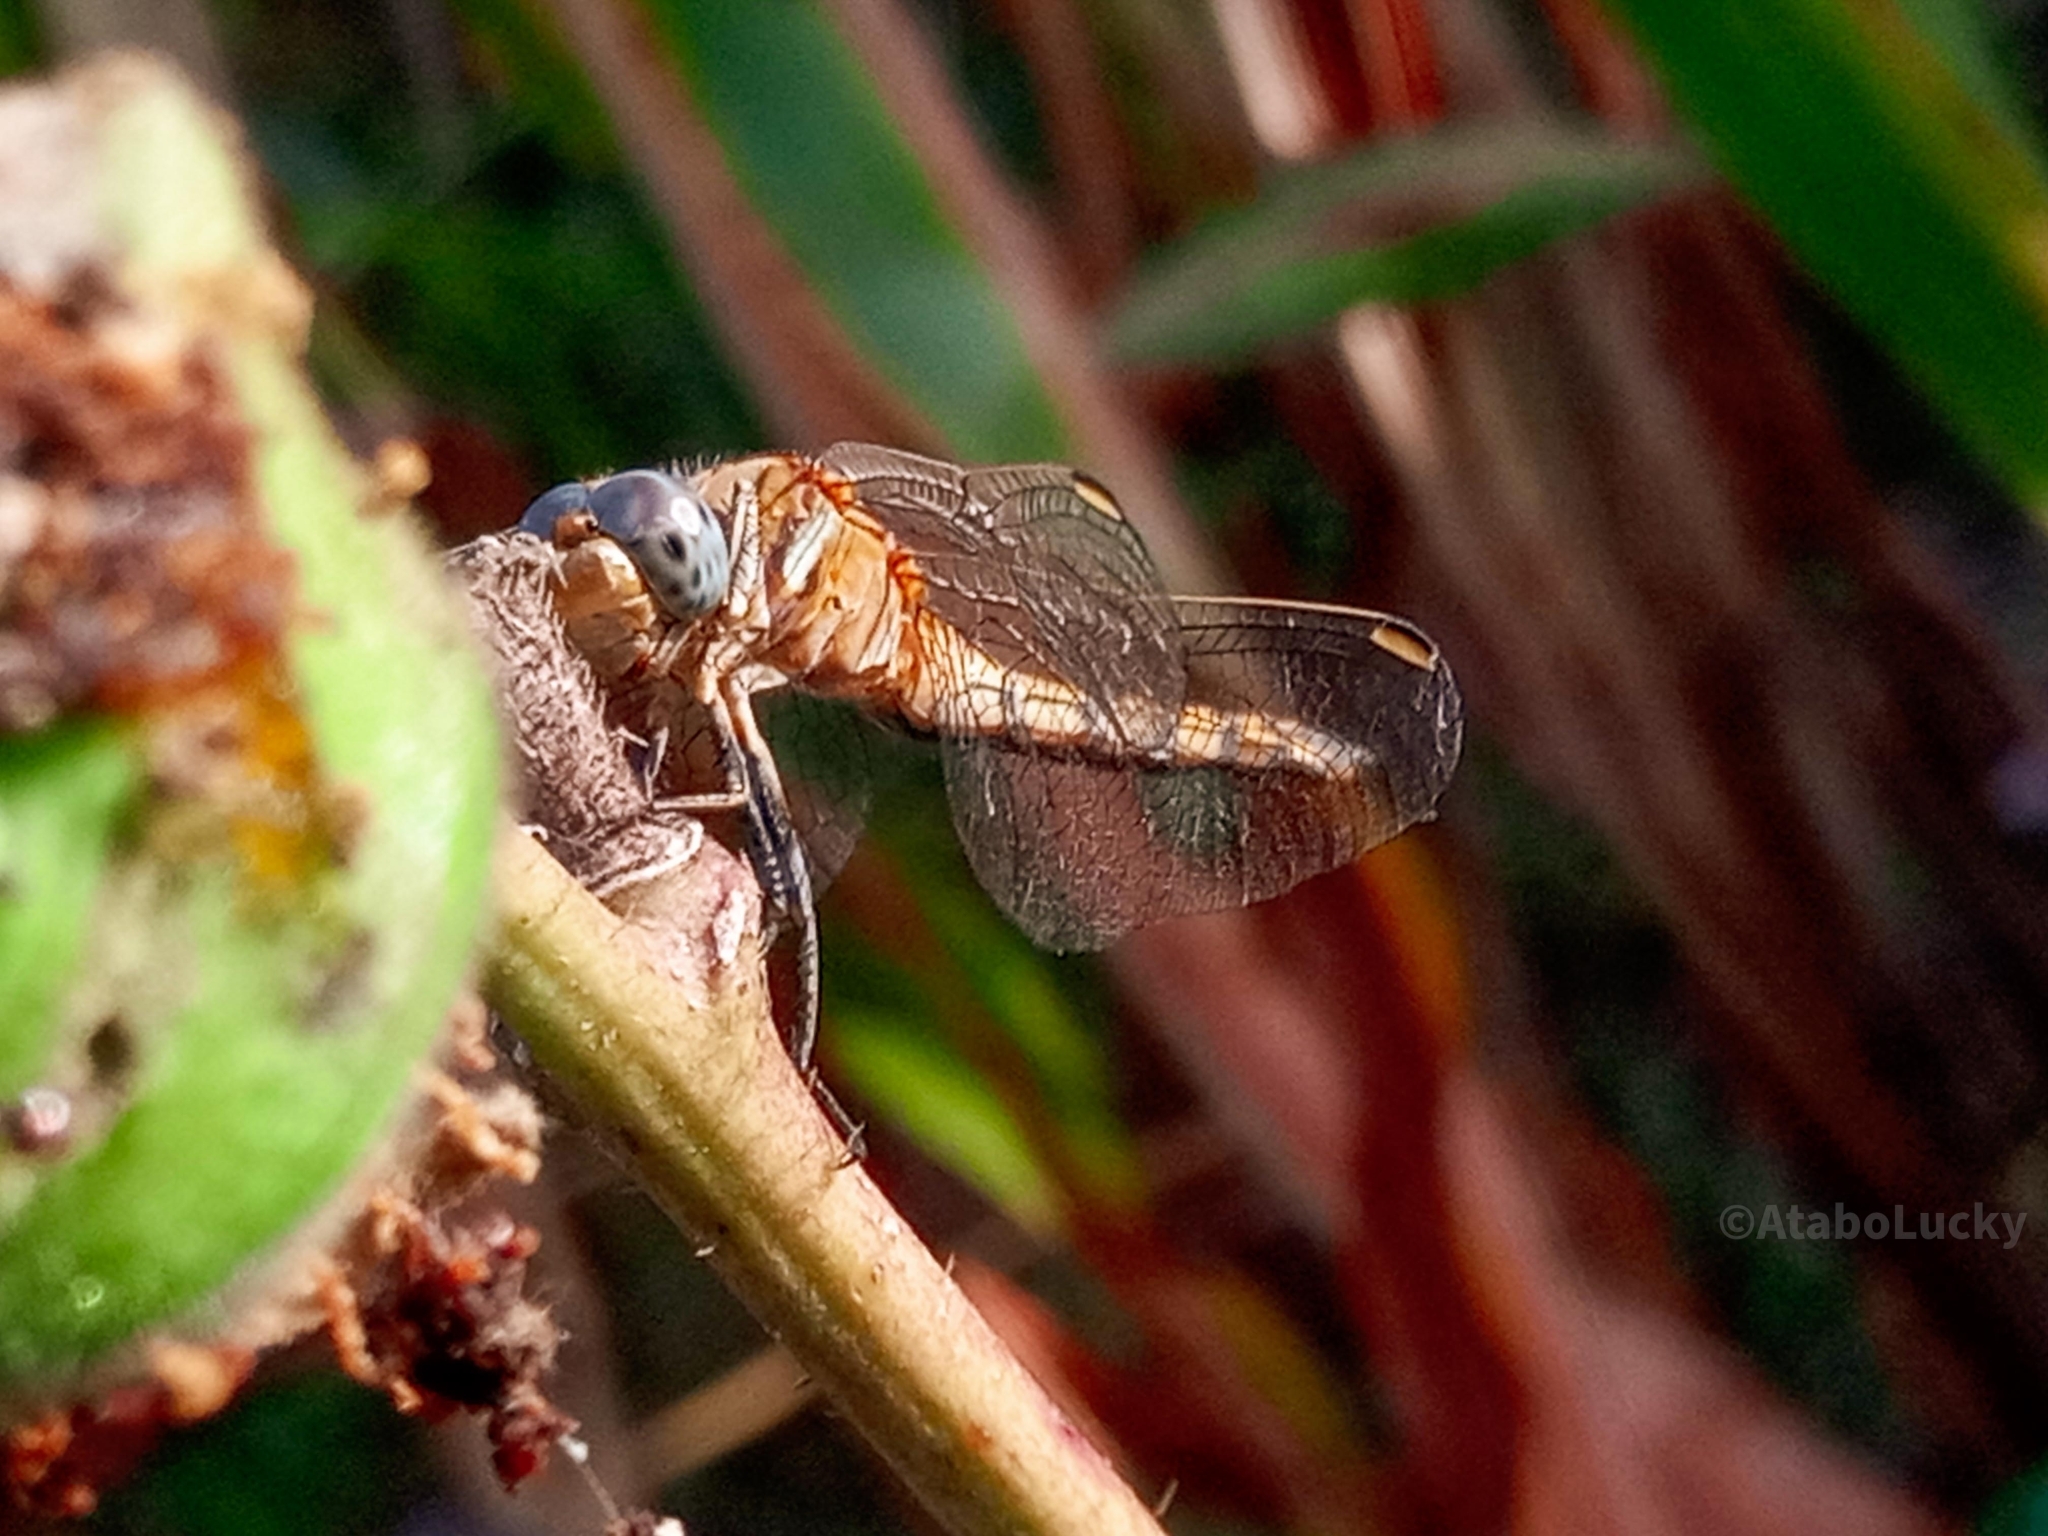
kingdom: Animalia
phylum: Arthropoda
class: Insecta
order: Odonata
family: Libellulidae
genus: Orthetrum
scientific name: Orthetrum chrysostigma
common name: Epaulet skimmer
